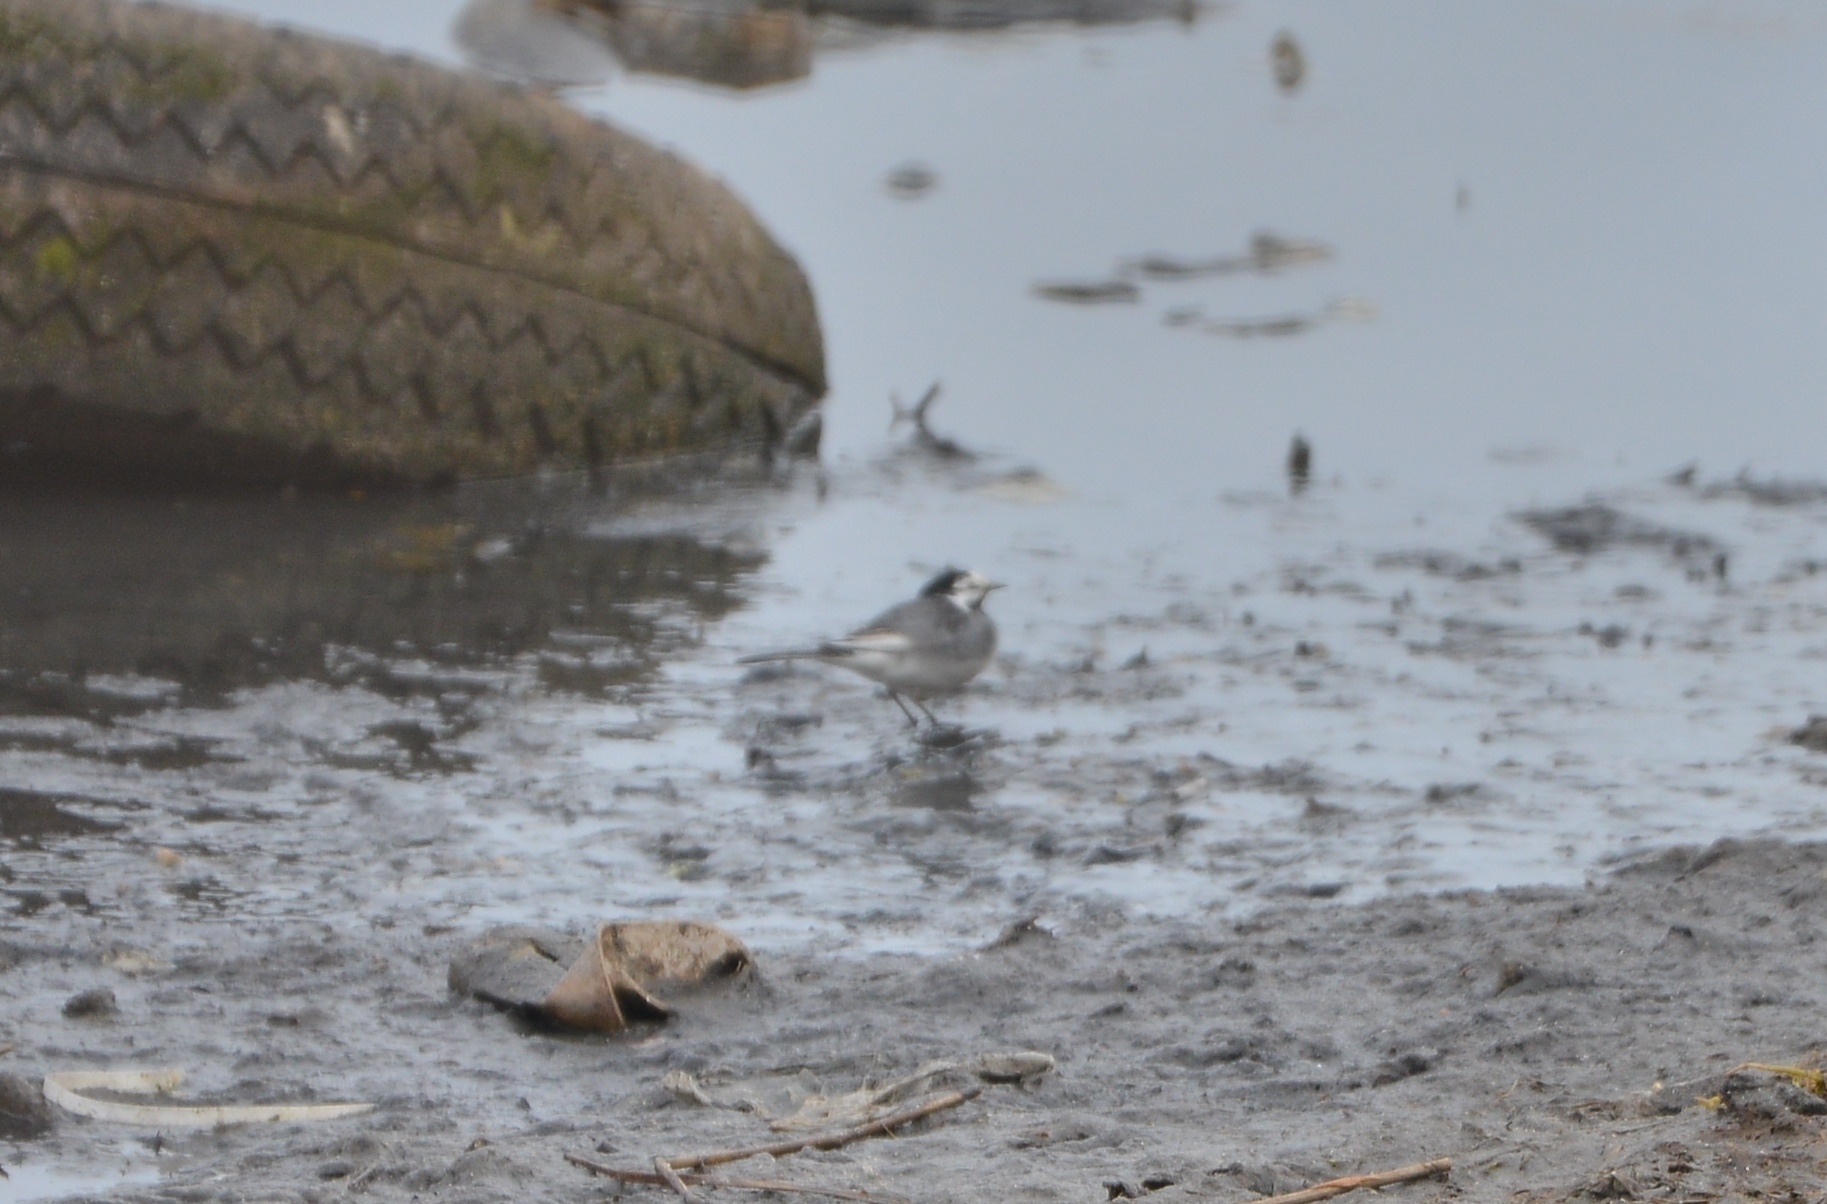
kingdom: Animalia
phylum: Chordata
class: Aves
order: Passeriformes
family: Motacillidae
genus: Motacilla
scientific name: Motacilla alba
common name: White wagtail
